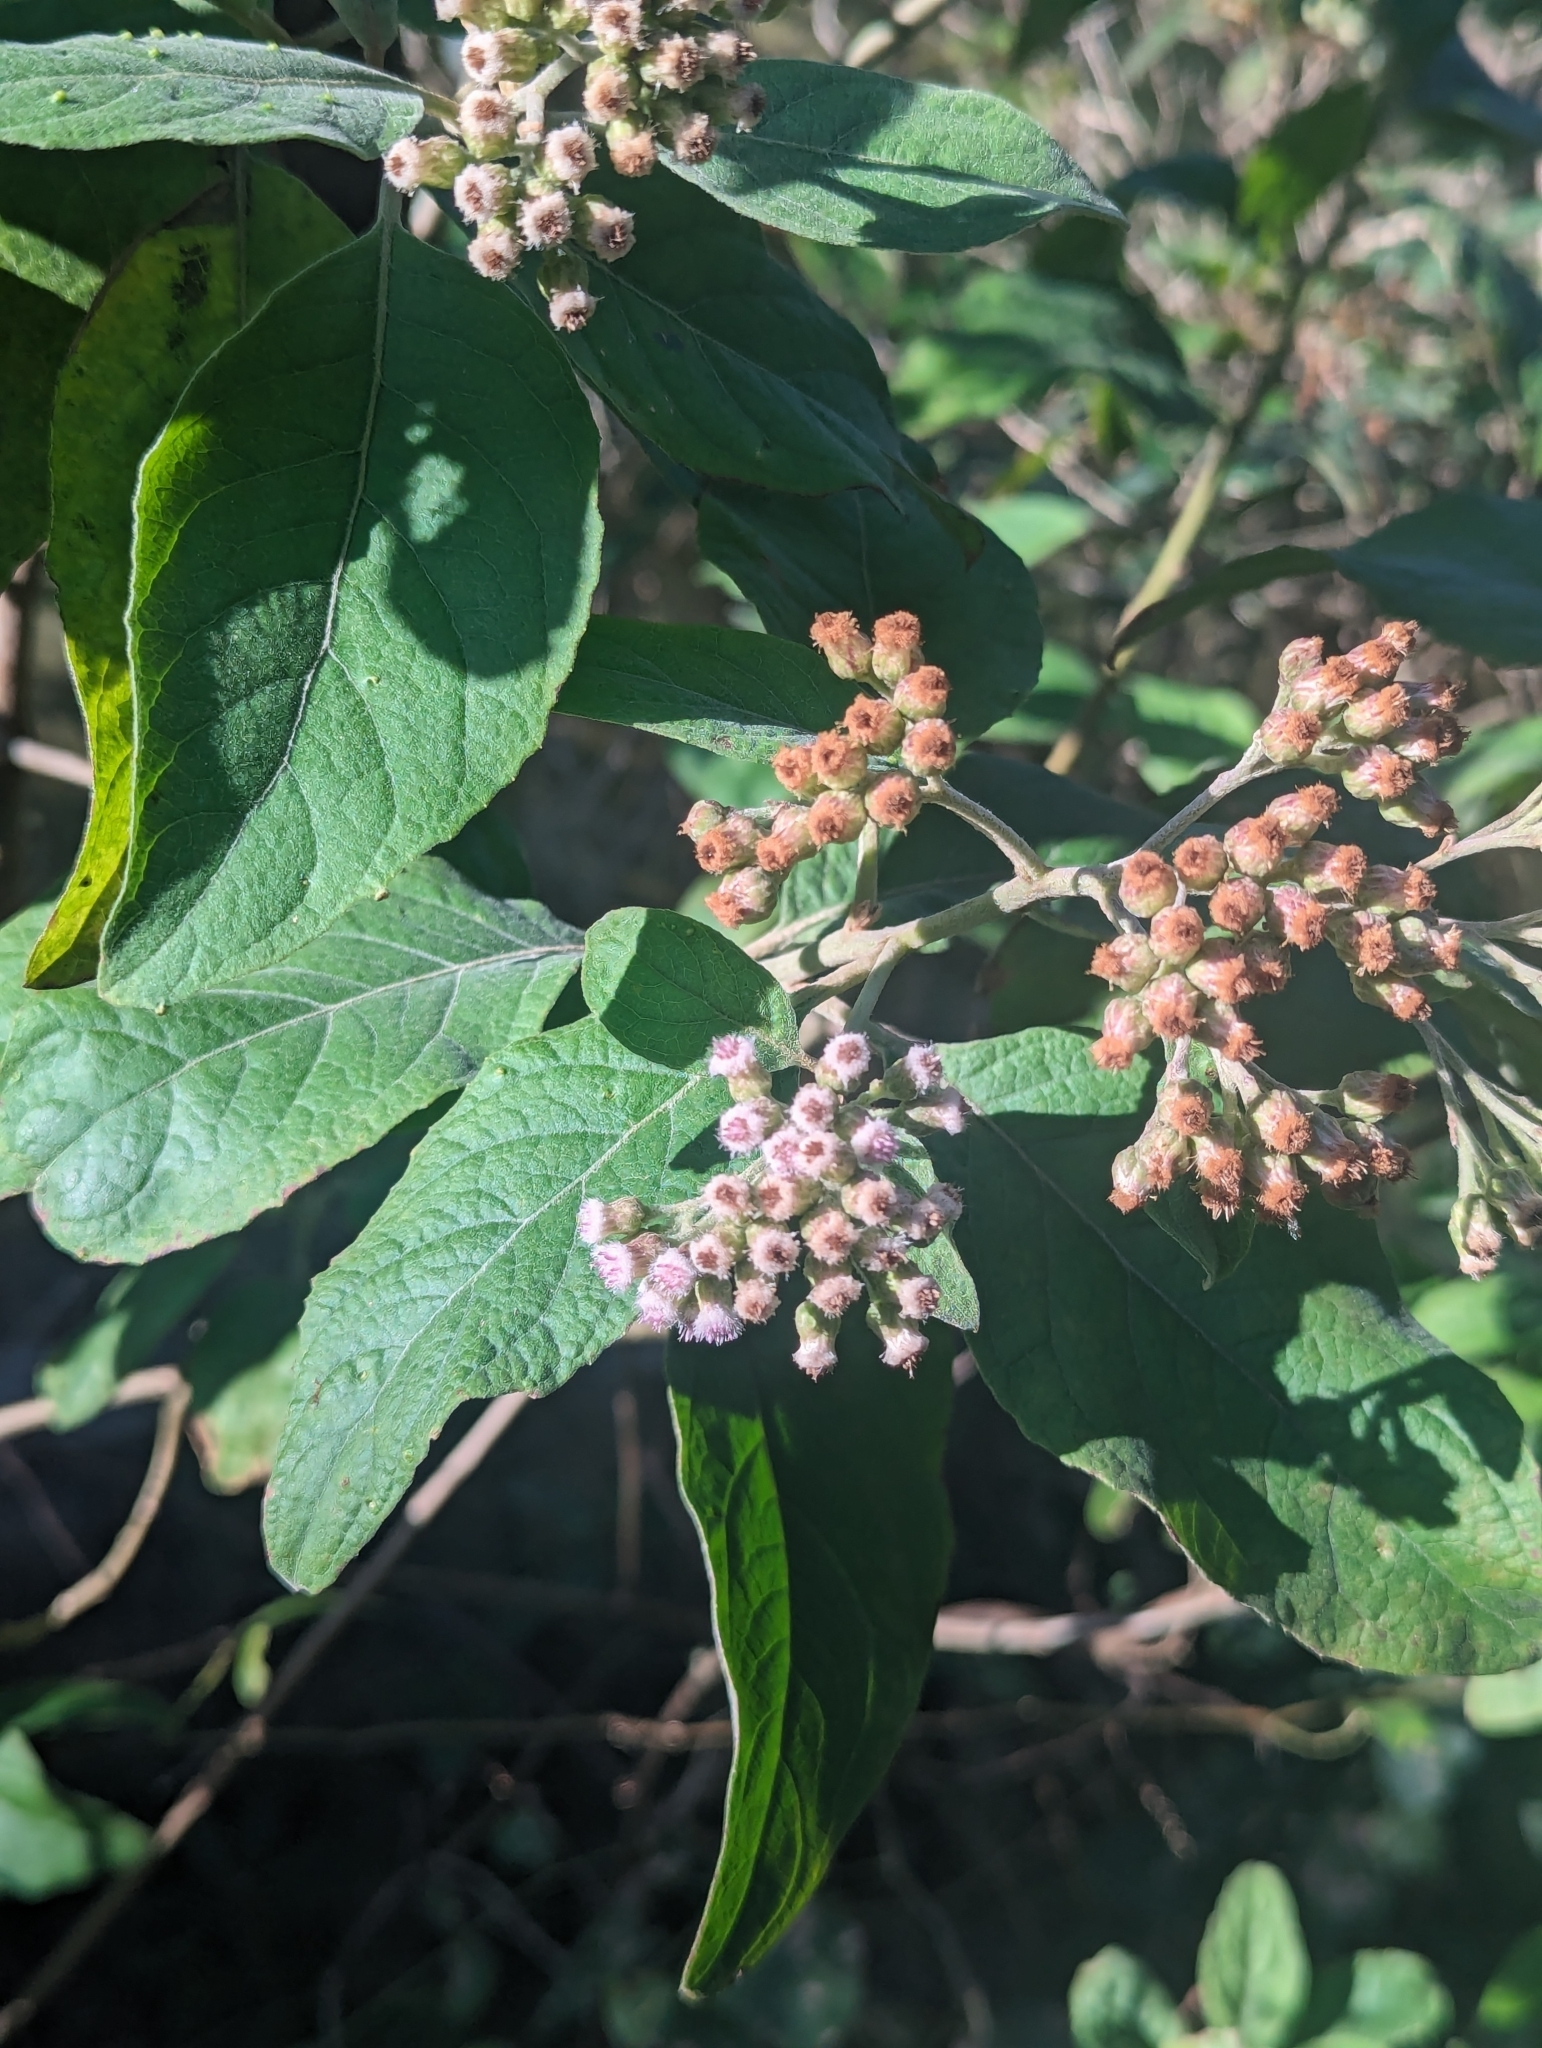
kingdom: Plantae
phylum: Tracheophyta
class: Magnoliopsida
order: Asterales
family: Asteraceae
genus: Pluchea
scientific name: Pluchea carolinensis
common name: Marsh fleabane
